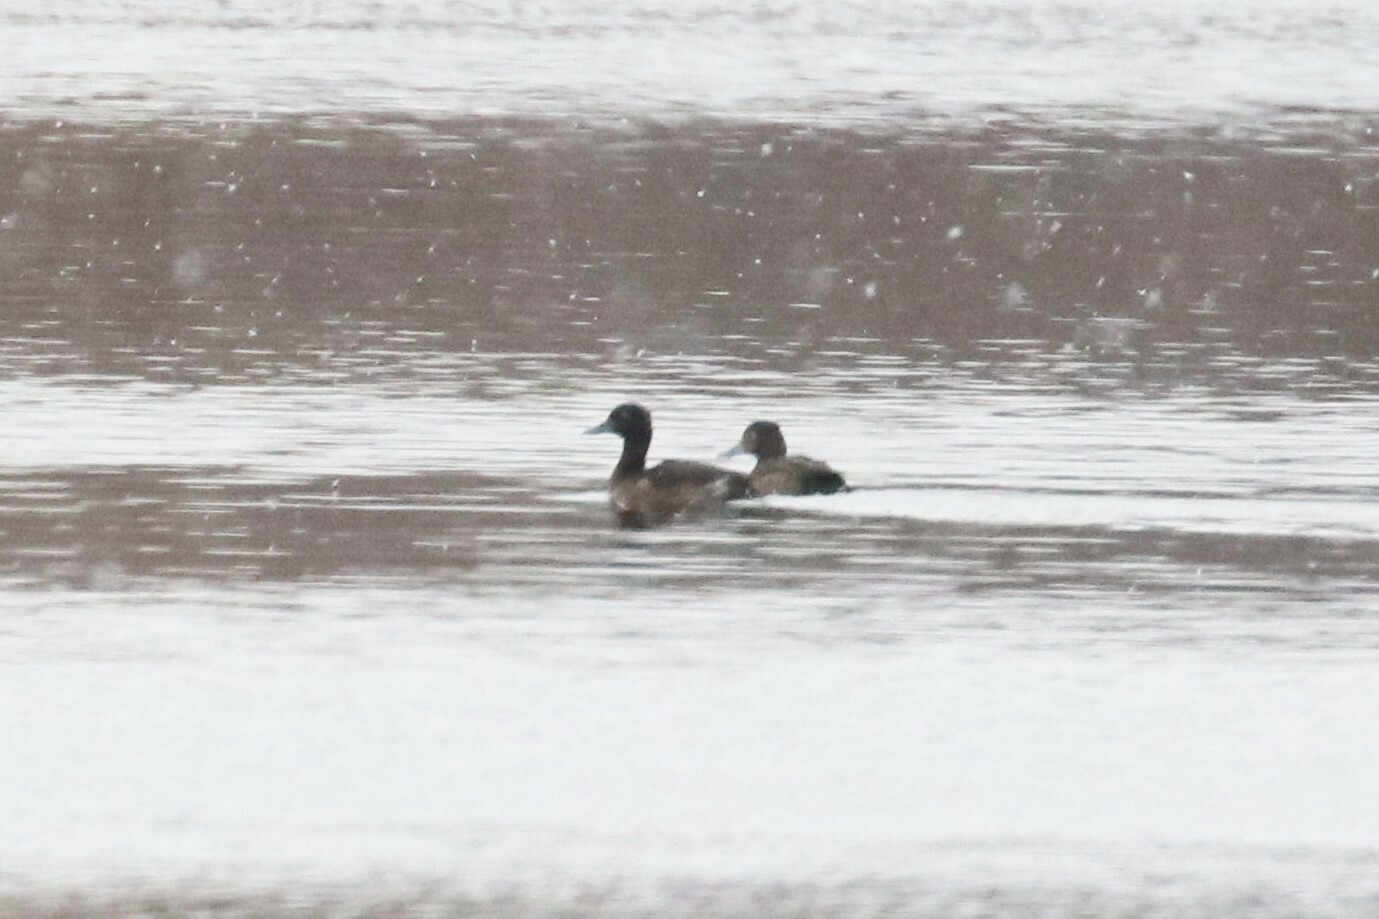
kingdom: Animalia
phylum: Chordata
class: Aves
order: Anseriformes
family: Anatidae
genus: Aythya
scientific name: Aythya fuligula
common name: Tufted duck
